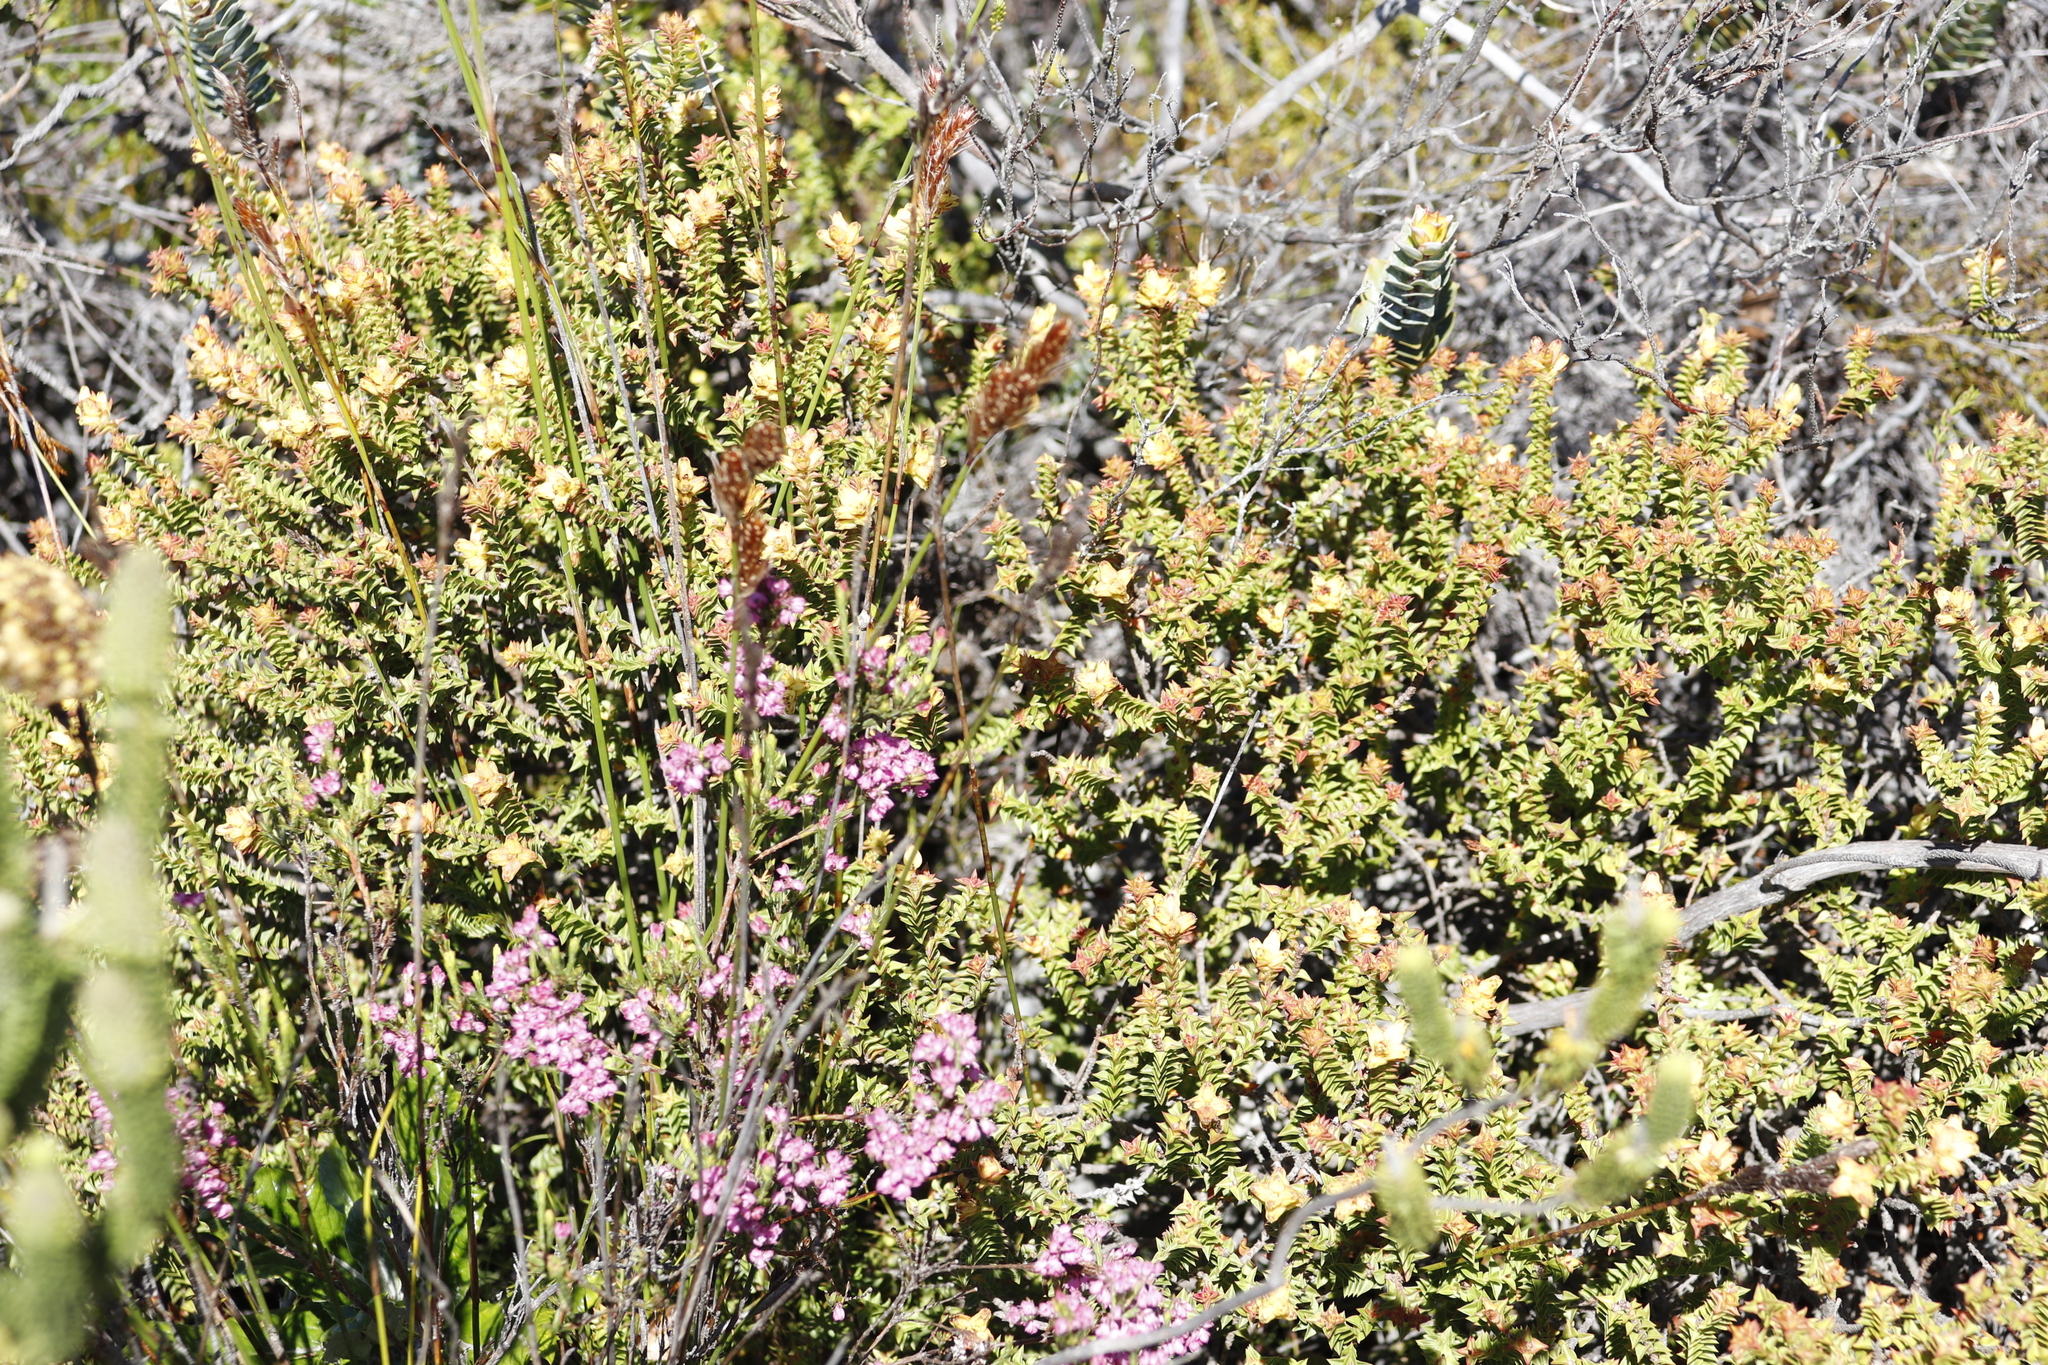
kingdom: Plantae
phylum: Tracheophyta
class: Magnoliopsida
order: Myrtales
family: Penaeaceae
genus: Penaea
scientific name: Penaea mucronata
